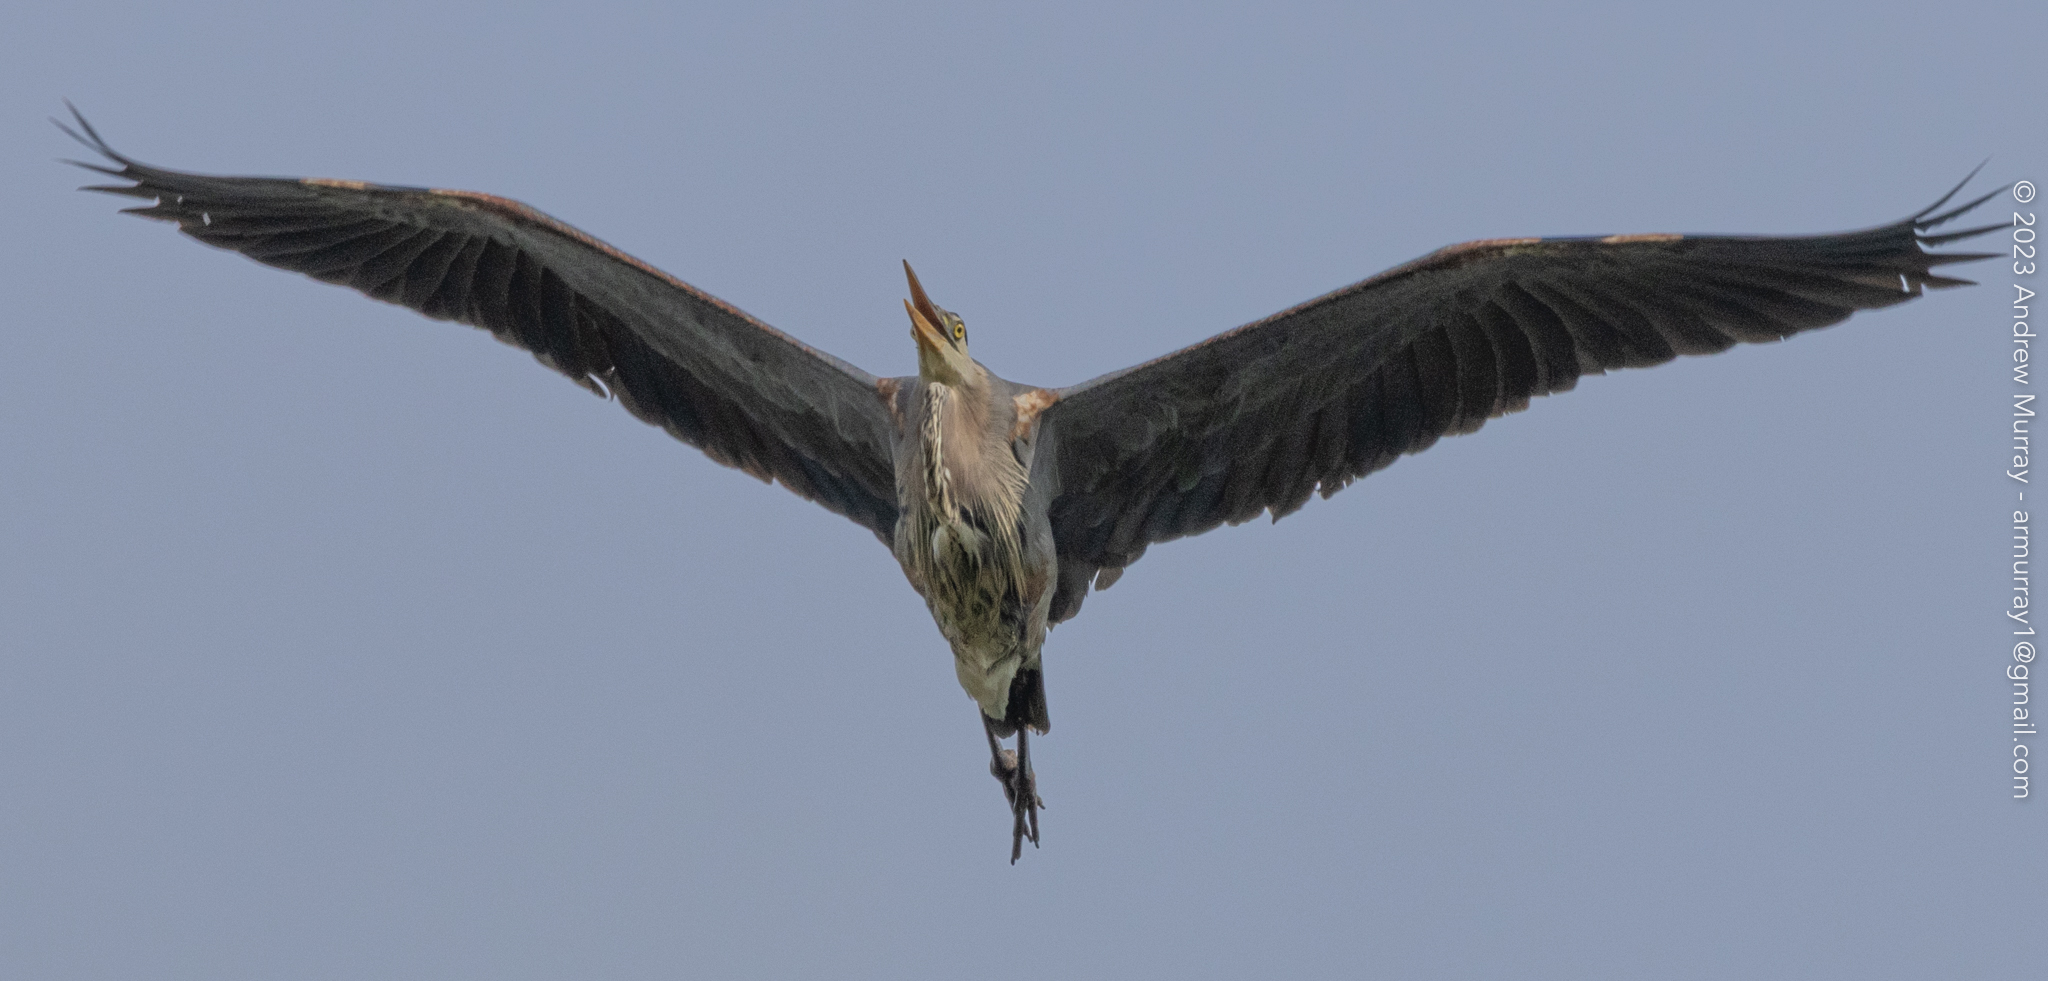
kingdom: Animalia
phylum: Chordata
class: Aves
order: Pelecaniformes
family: Ardeidae
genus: Ardea
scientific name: Ardea herodias
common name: Great blue heron
